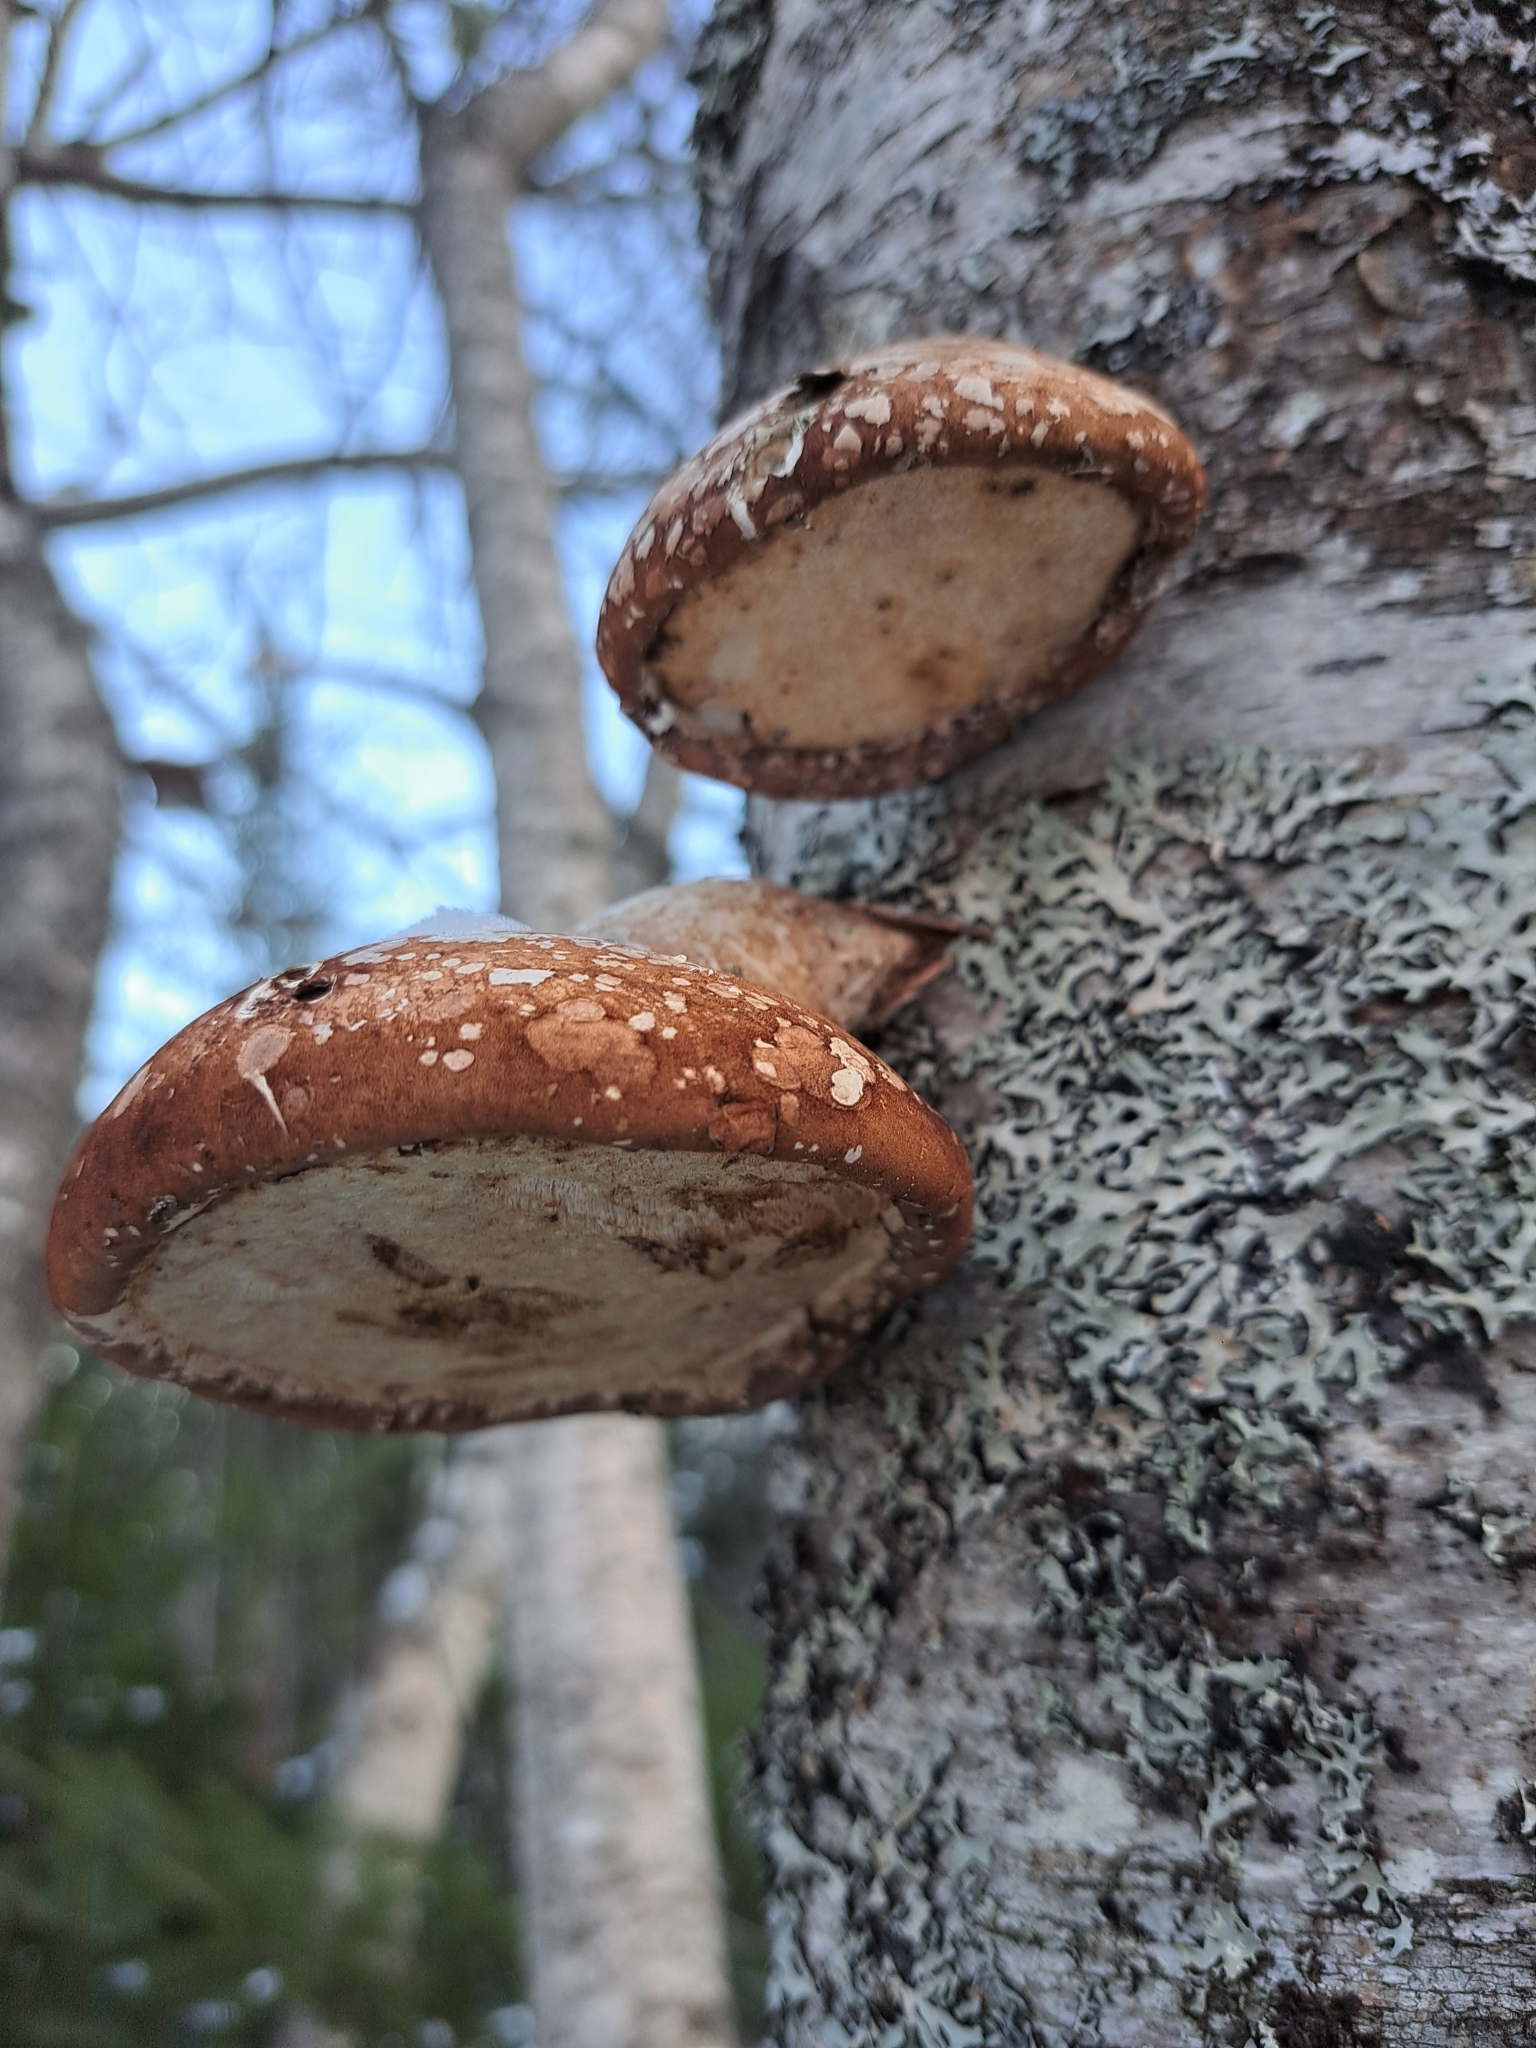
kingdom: Fungi
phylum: Basidiomycota
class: Agaricomycetes
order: Polyporales
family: Fomitopsidaceae
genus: Fomitopsis
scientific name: Fomitopsis betulina
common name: Birch polypore
